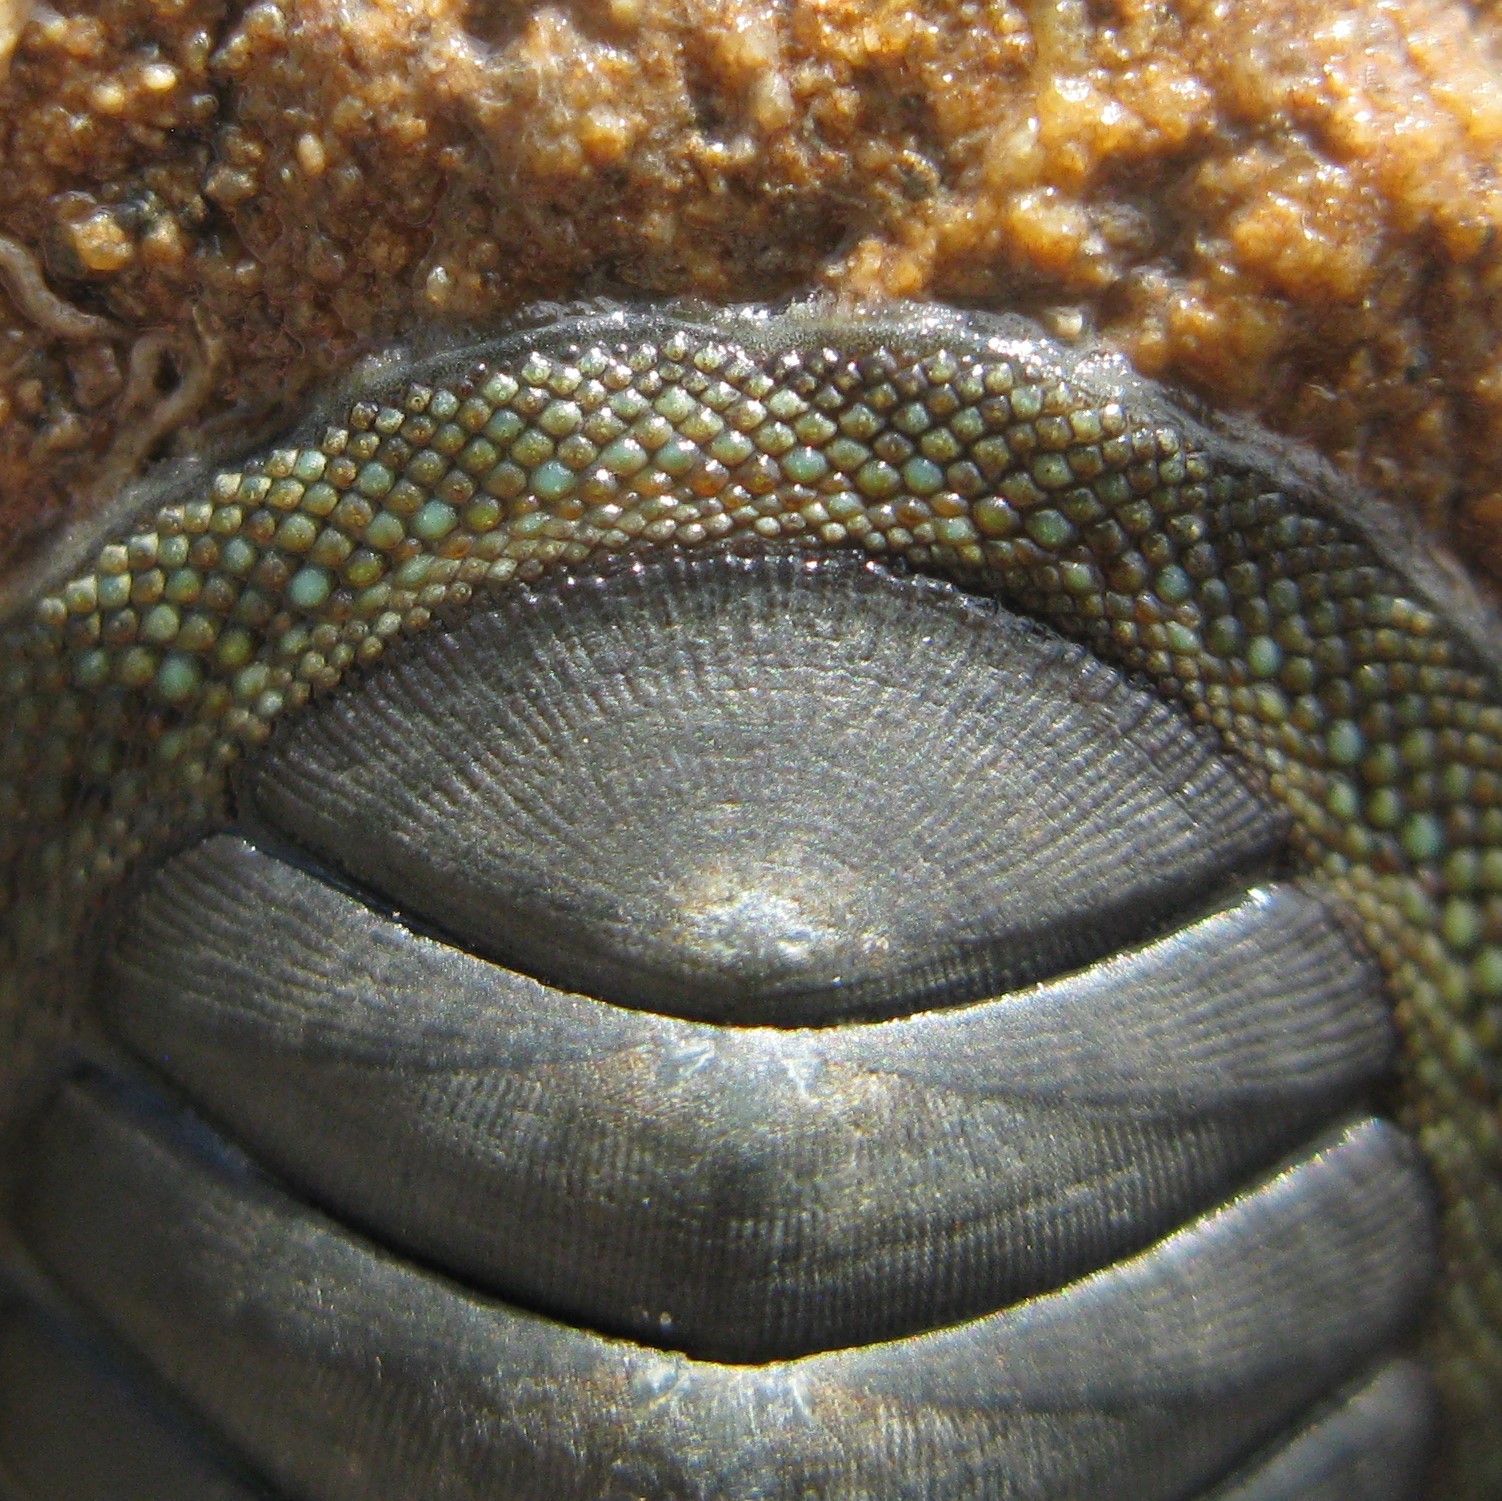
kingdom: Animalia
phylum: Mollusca
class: Polyplacophora
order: Chitonida
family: Chitonidae
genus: Chiton
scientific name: Chiton glaucus
